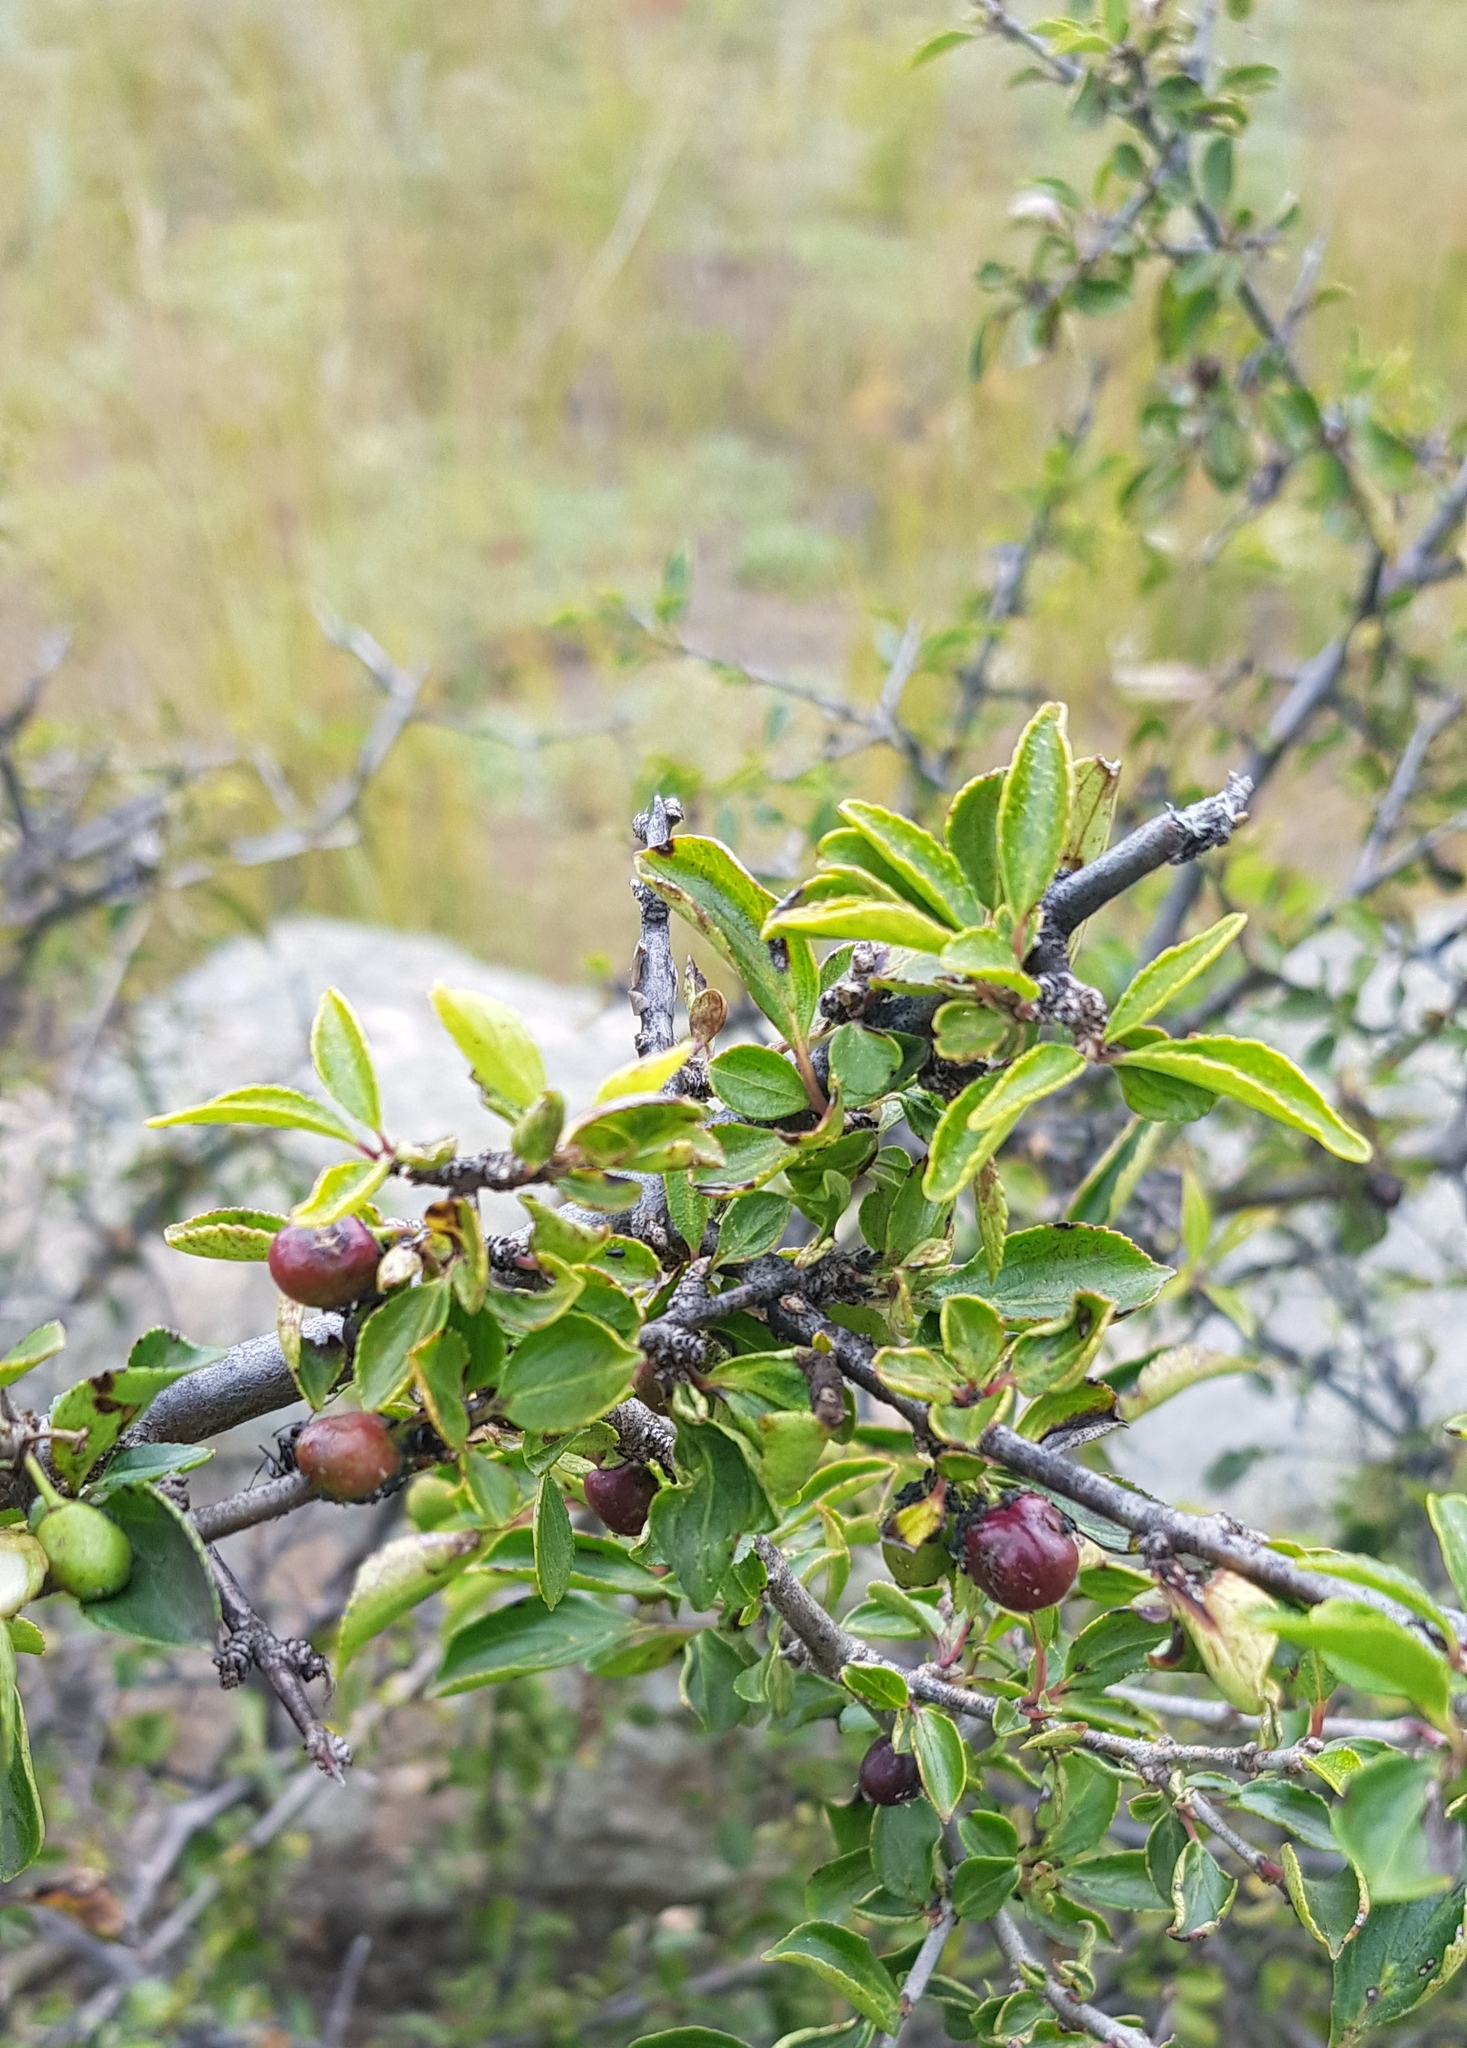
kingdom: Plantae
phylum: Tracheophyta
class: Magnoliopsida
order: Rosales
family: Rhamnaceae
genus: Rhamnus
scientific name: Rhamnus parvifolia
